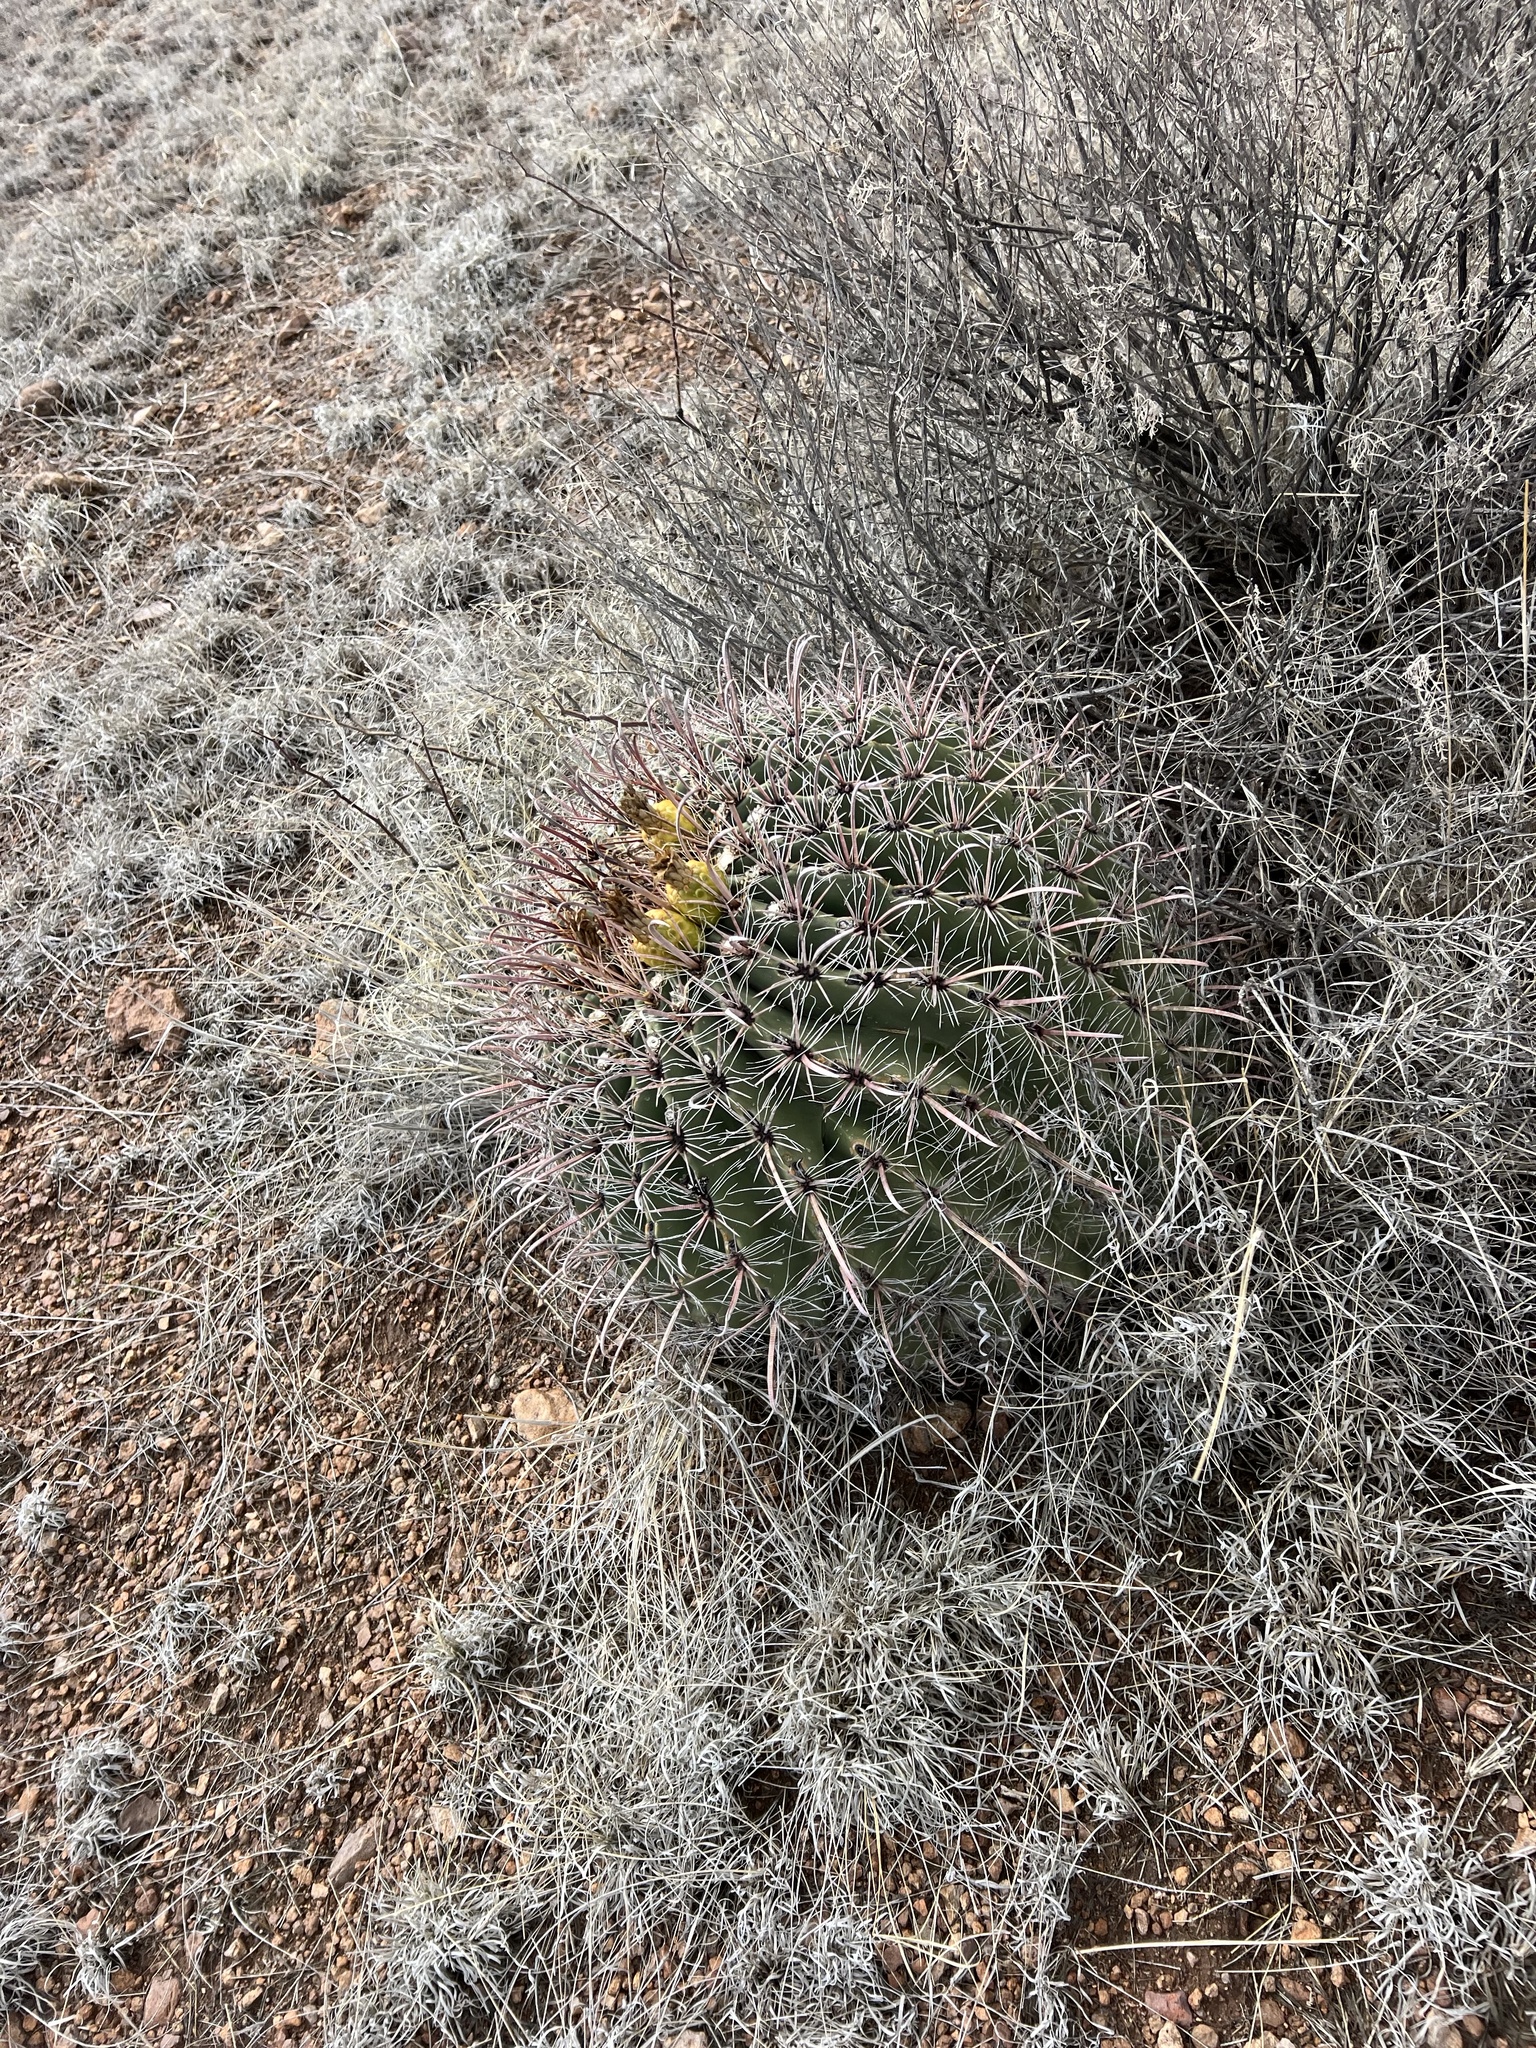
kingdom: Plantae
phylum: Tracheophyta
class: Magnoliopsida
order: Caryophyllales
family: Cactaceae
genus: Ferocactus
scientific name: Ferocactus wislizeni
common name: Candy barrel cactus
